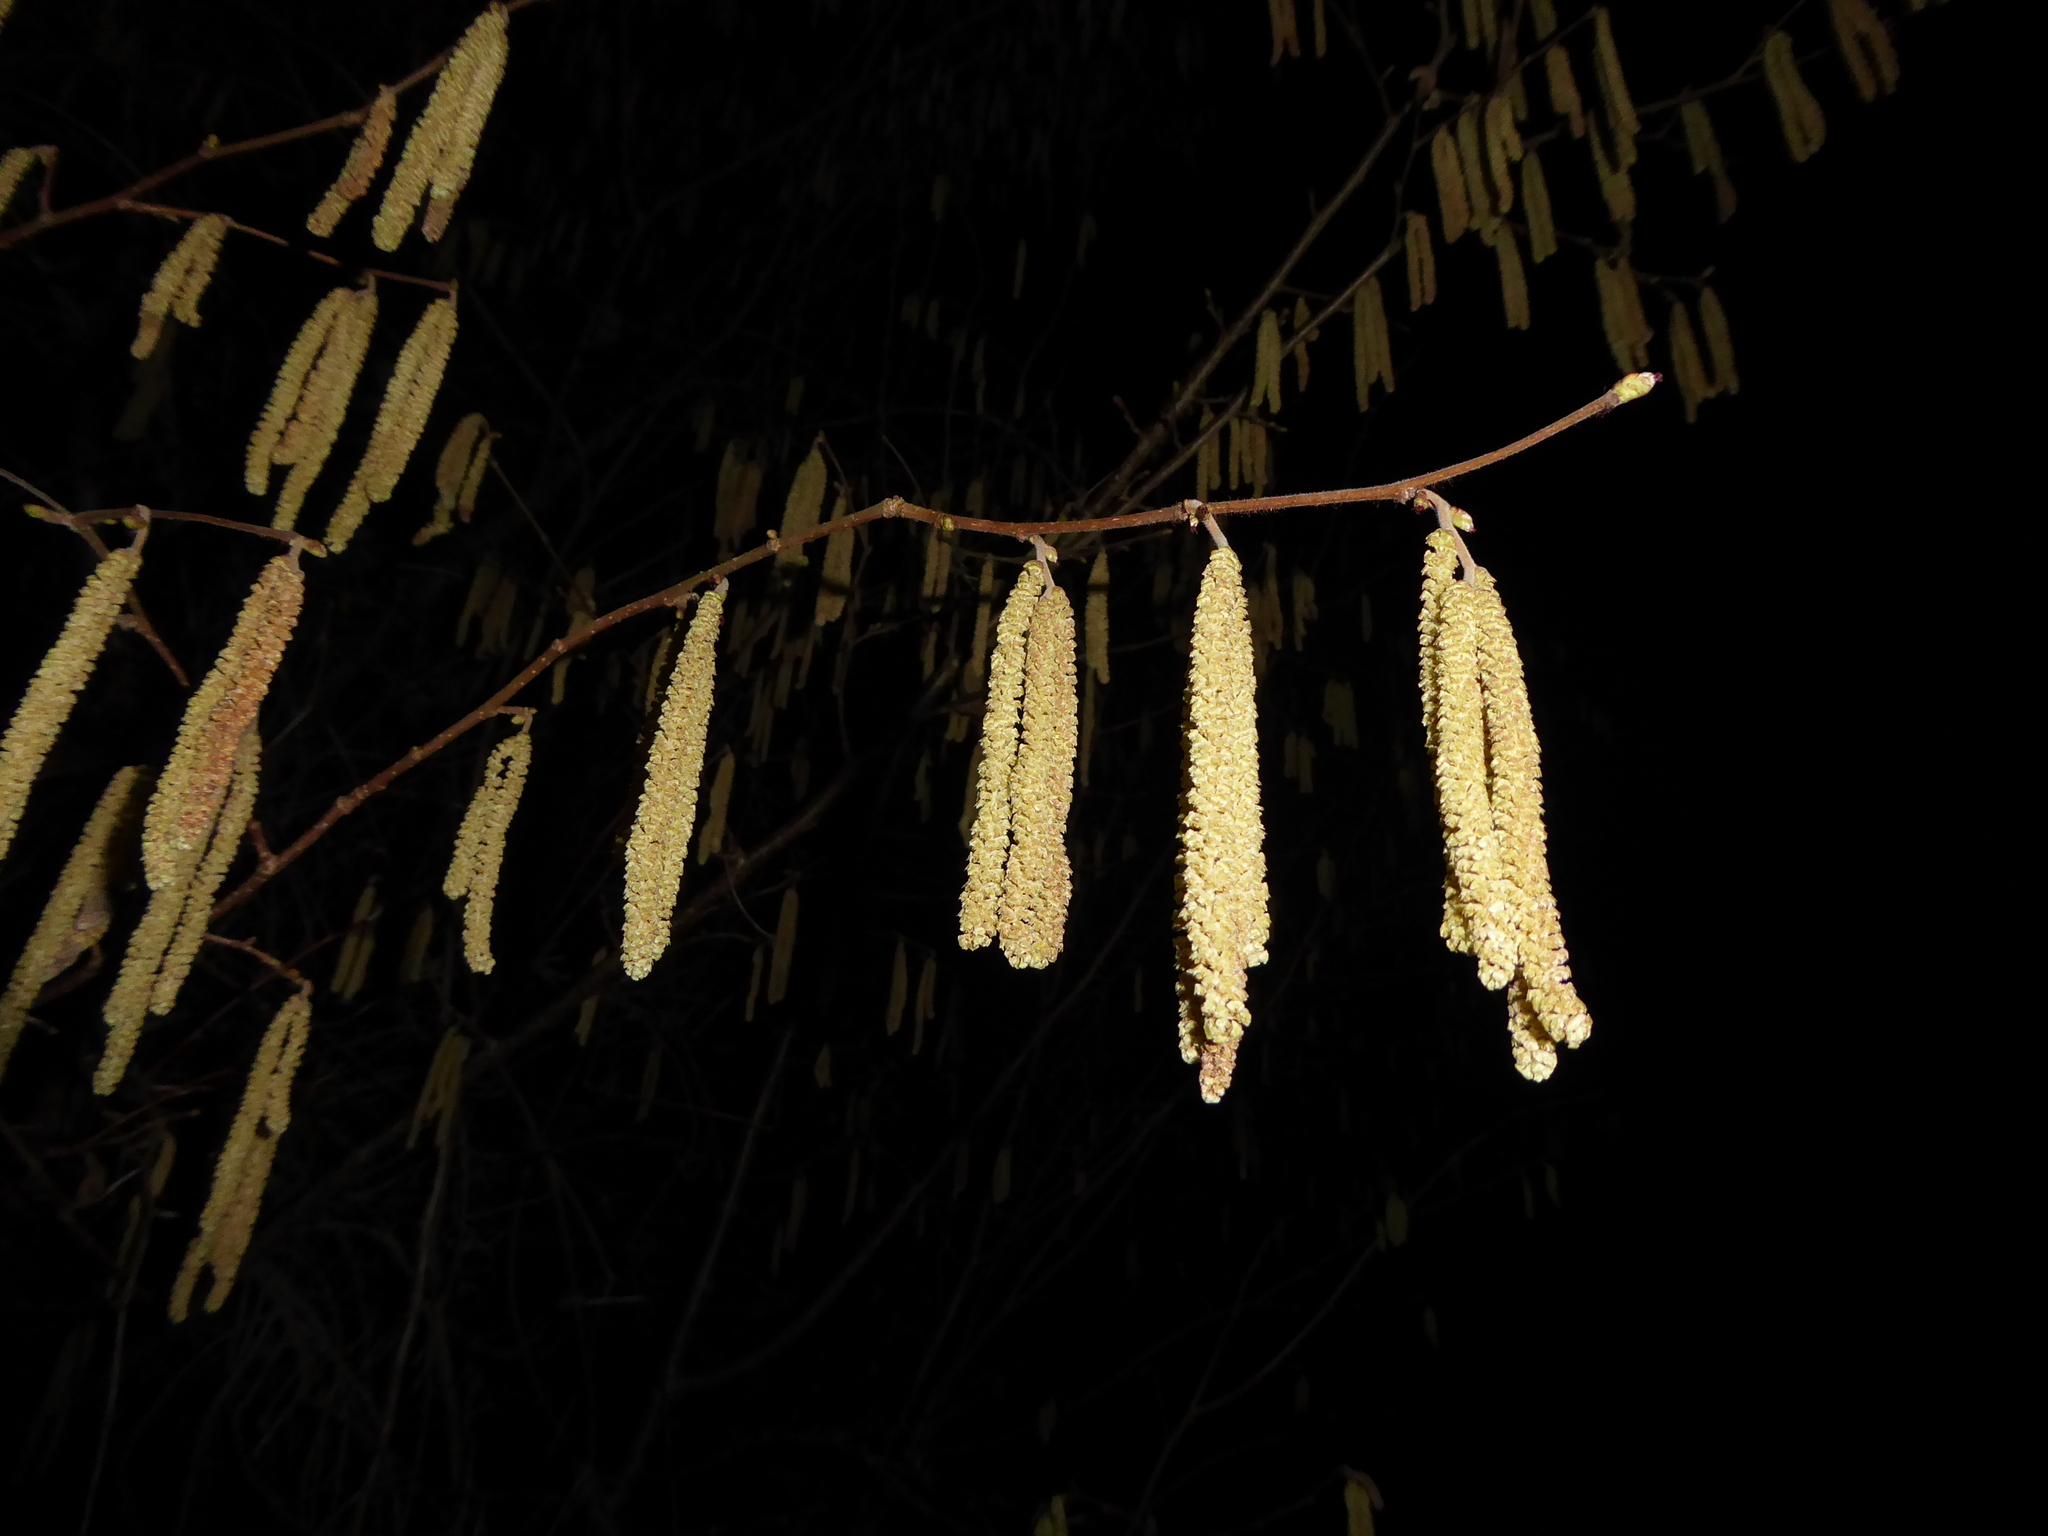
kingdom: Plantae
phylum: Tracheophyta
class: Magnoliopsida
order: Fagales
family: Betulaceae
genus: Corylus
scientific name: Corylus avellana
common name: European hazel
